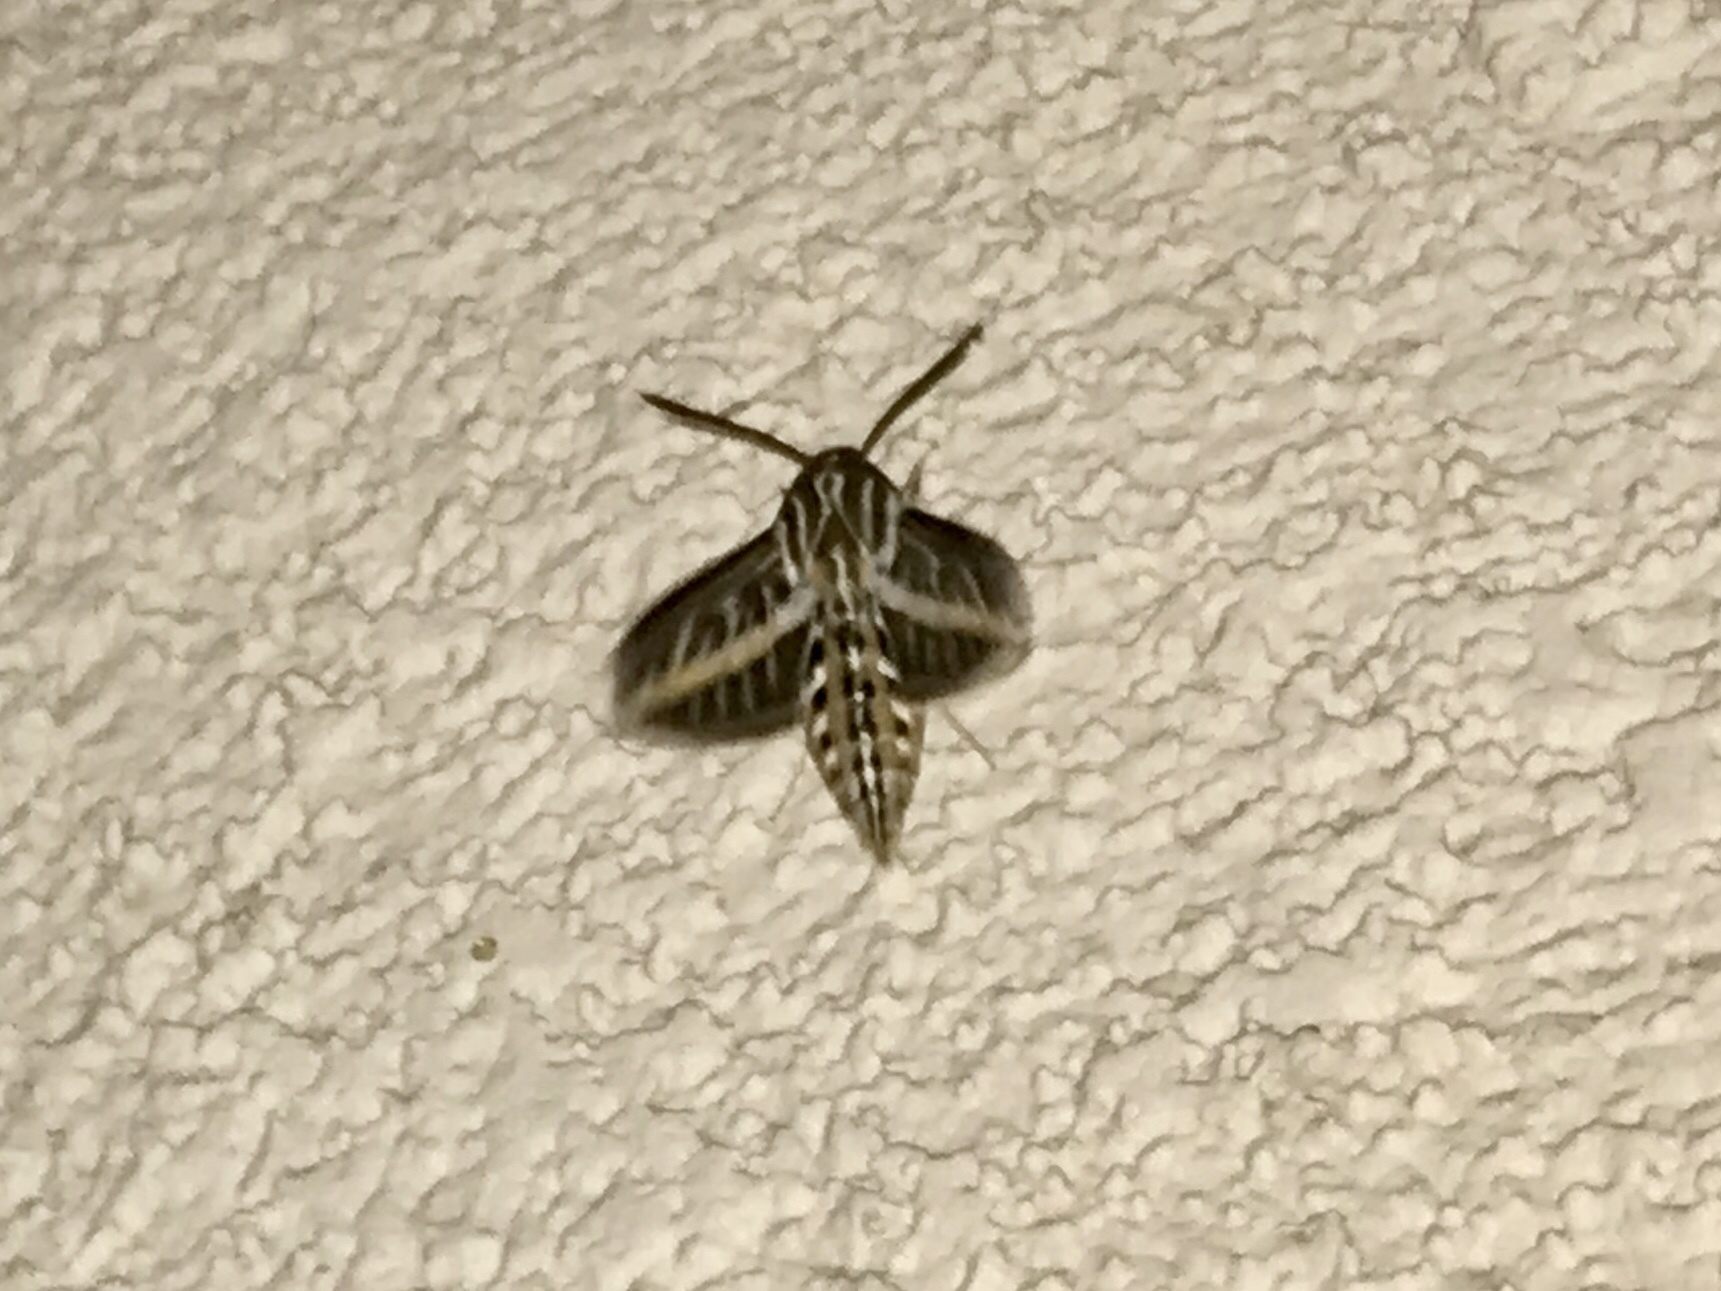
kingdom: Animalia
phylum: Arthropoda
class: Insecta
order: Lepidoptera
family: Sphingidae
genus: Hyles
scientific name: Hyles lineata
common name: White-lined sphinx
